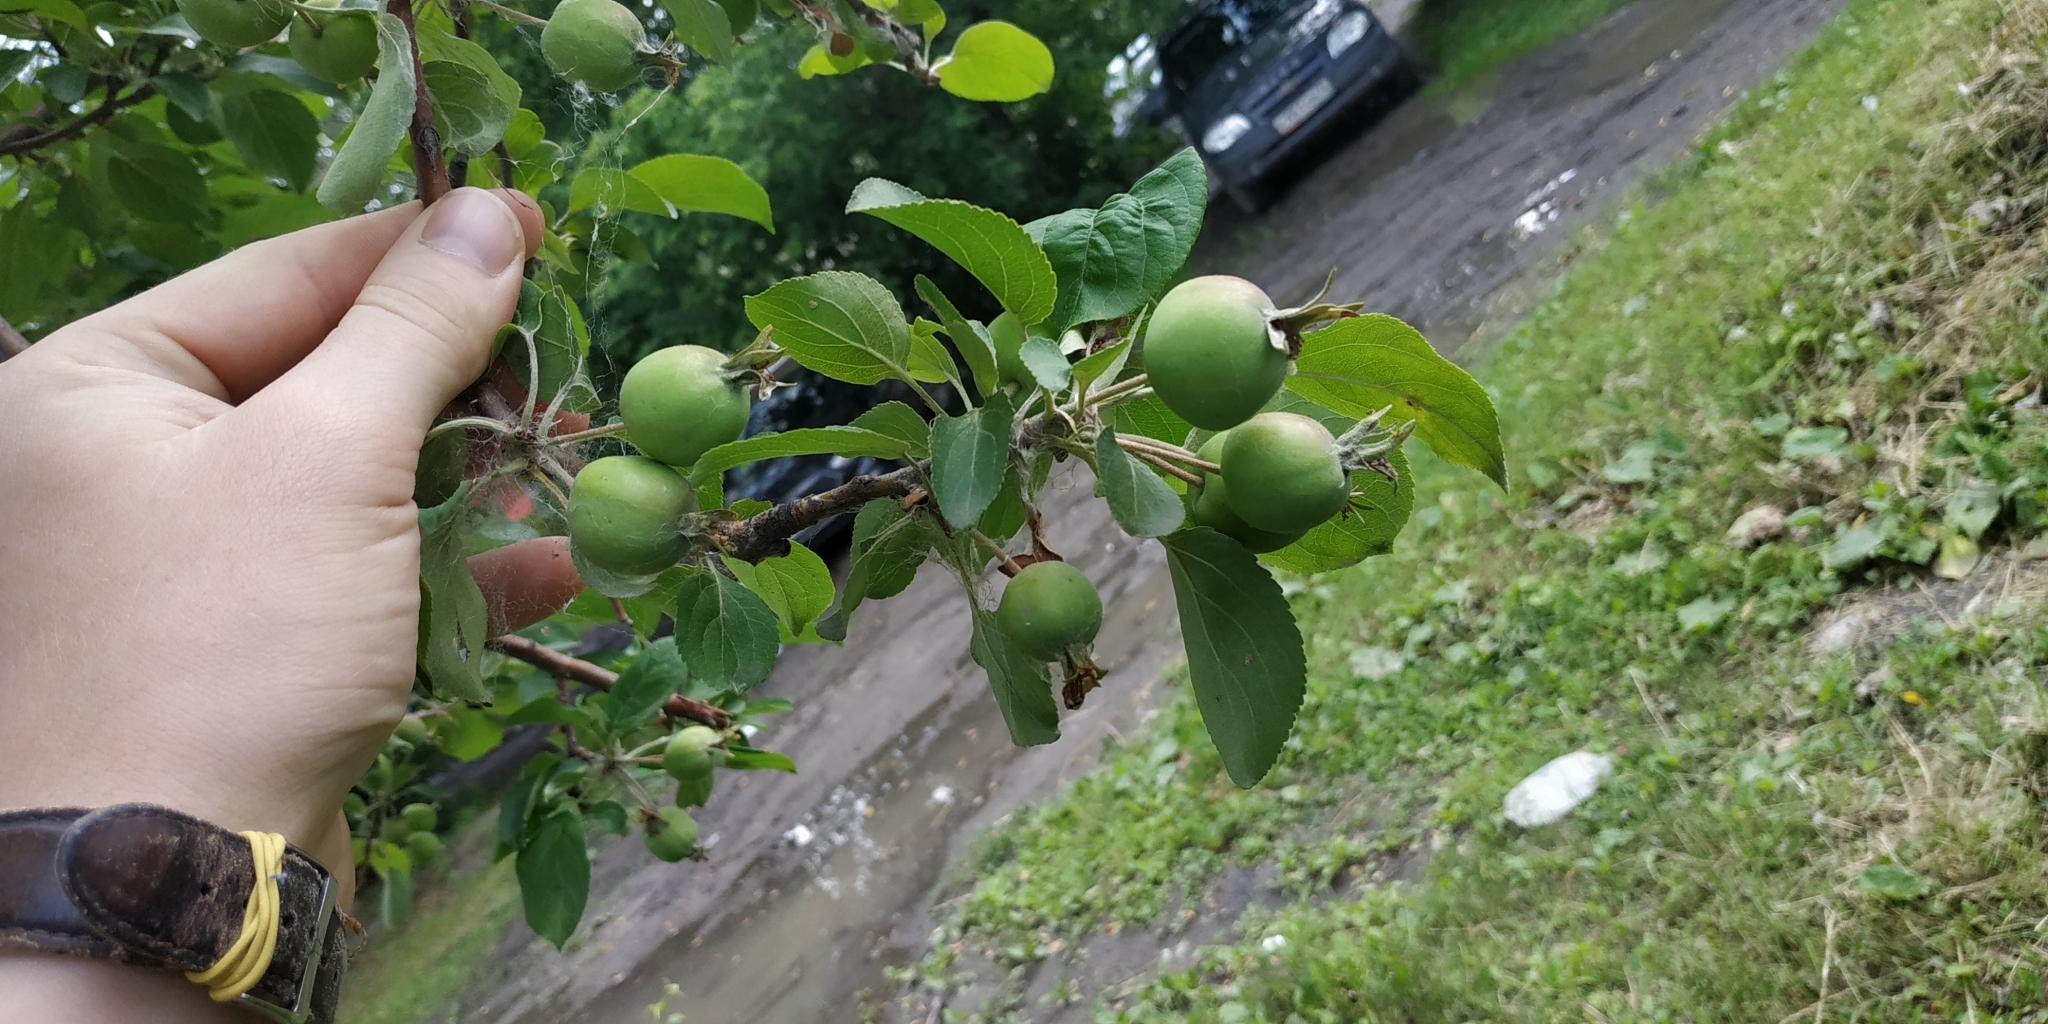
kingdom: Plantae
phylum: Tracheophyta
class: Magnoliopsida
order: Rosales
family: Rosaceae
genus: Malus
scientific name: Malus domestica
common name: Apple
